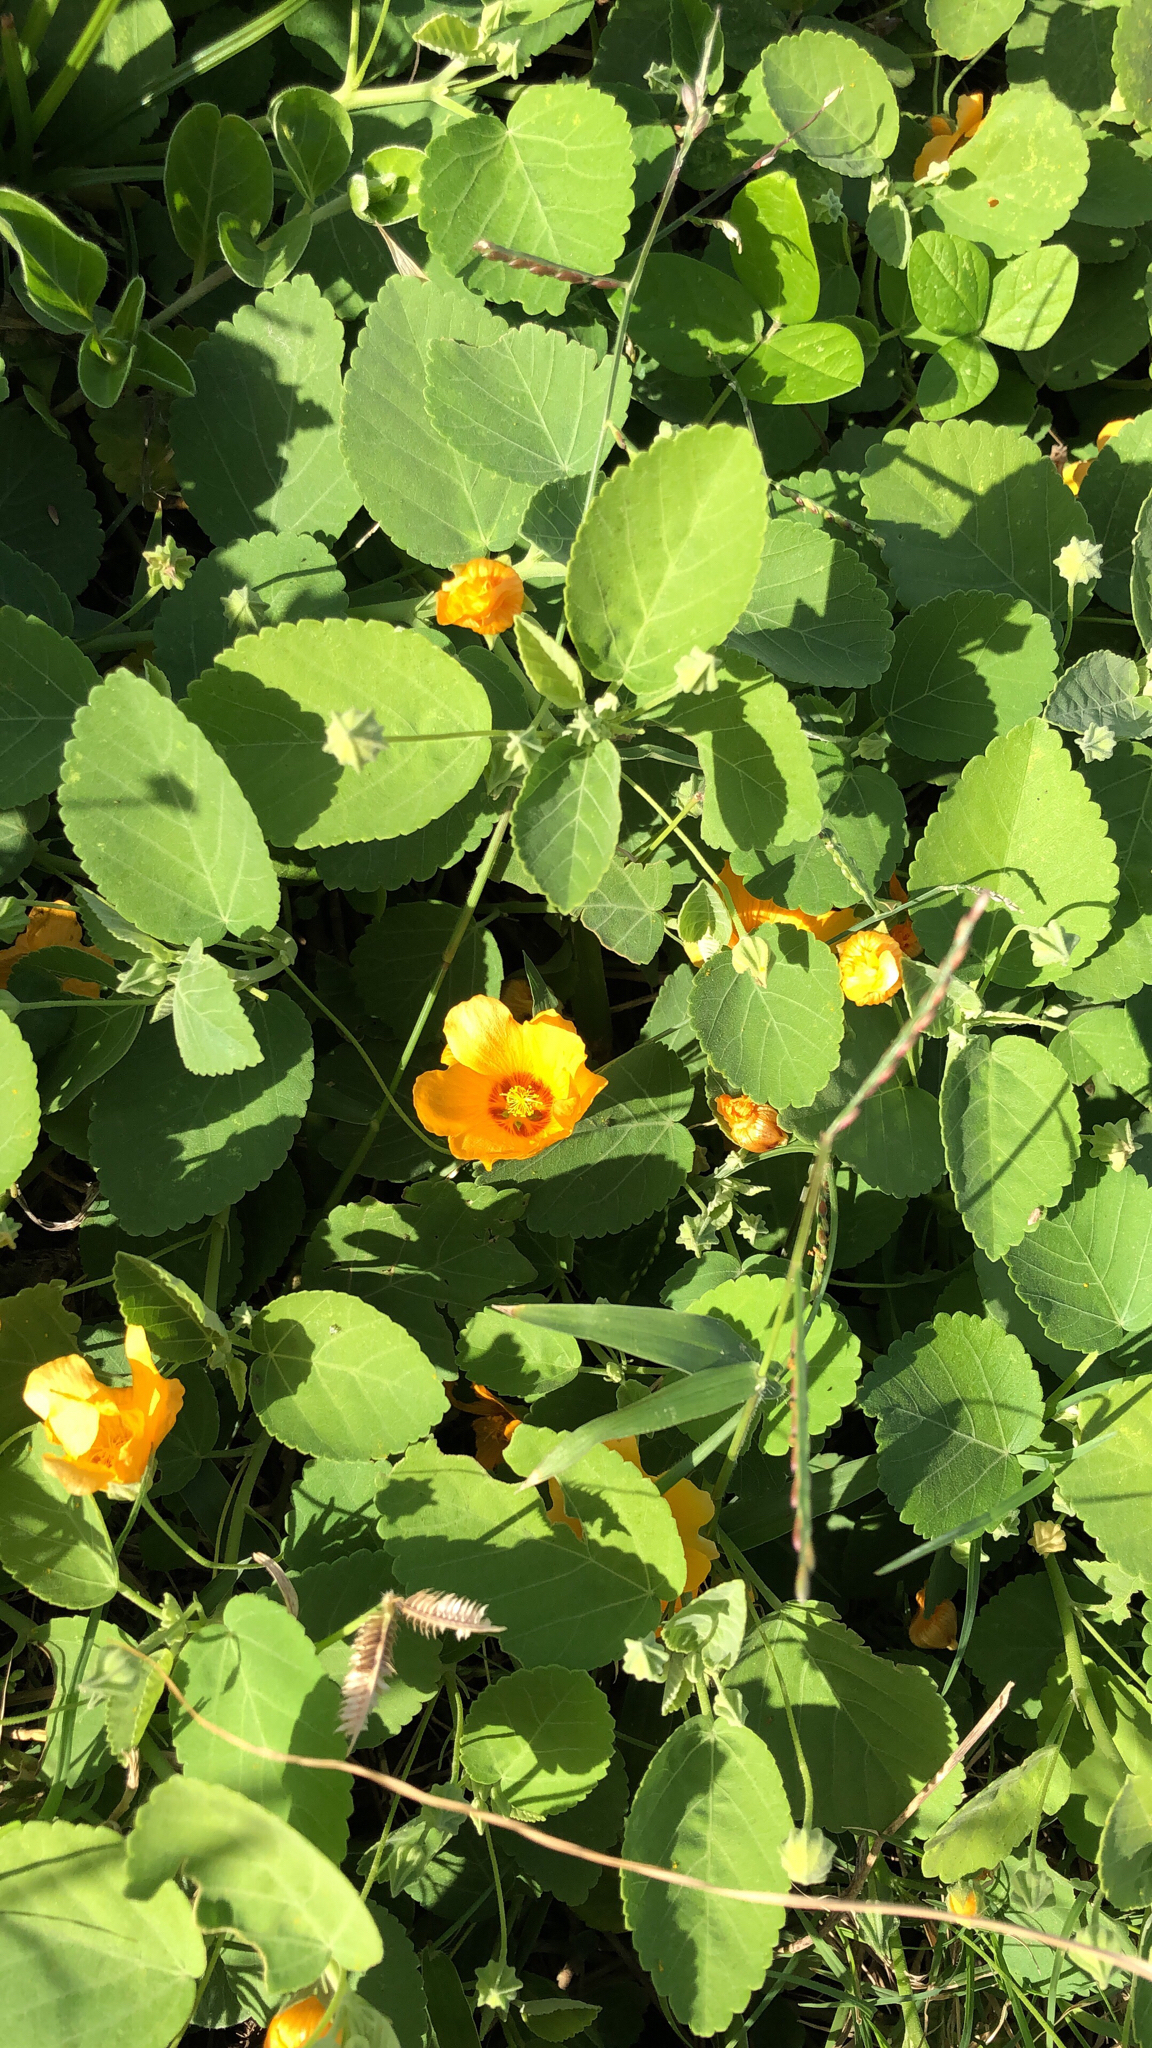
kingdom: Plantae
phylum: Tracheophyta
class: Magnoliopsida
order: Malvales
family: Malvaceae
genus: Sida
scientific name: Sida fallax
